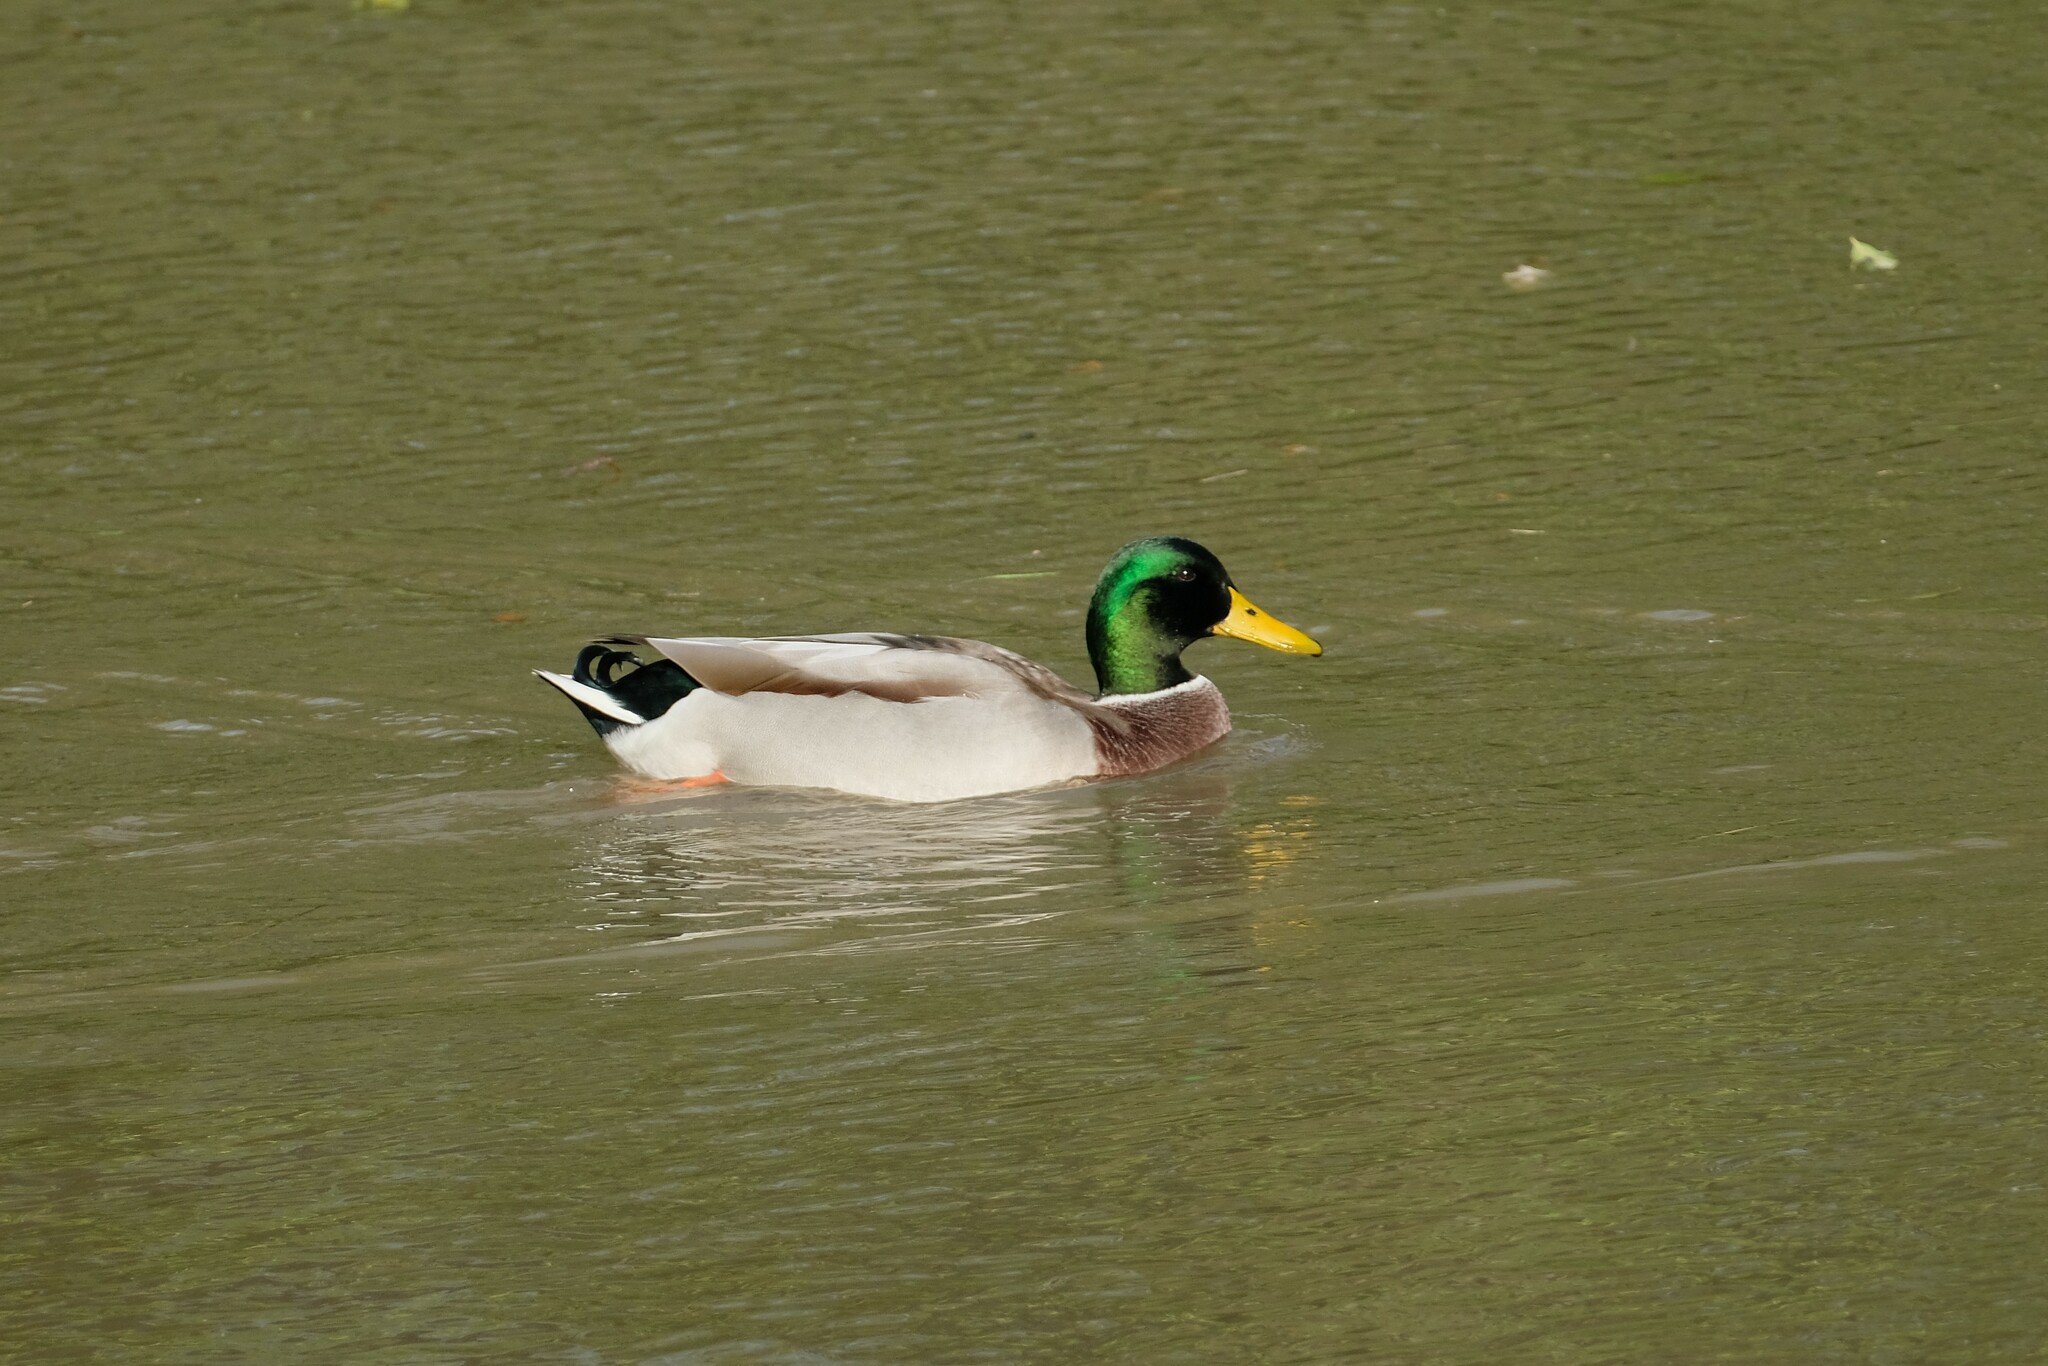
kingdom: Animalia
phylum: Chordata
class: Aves
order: Anseriformes
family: Anatidae
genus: Anas
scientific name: Anas platyrhynchos
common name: Mallard
